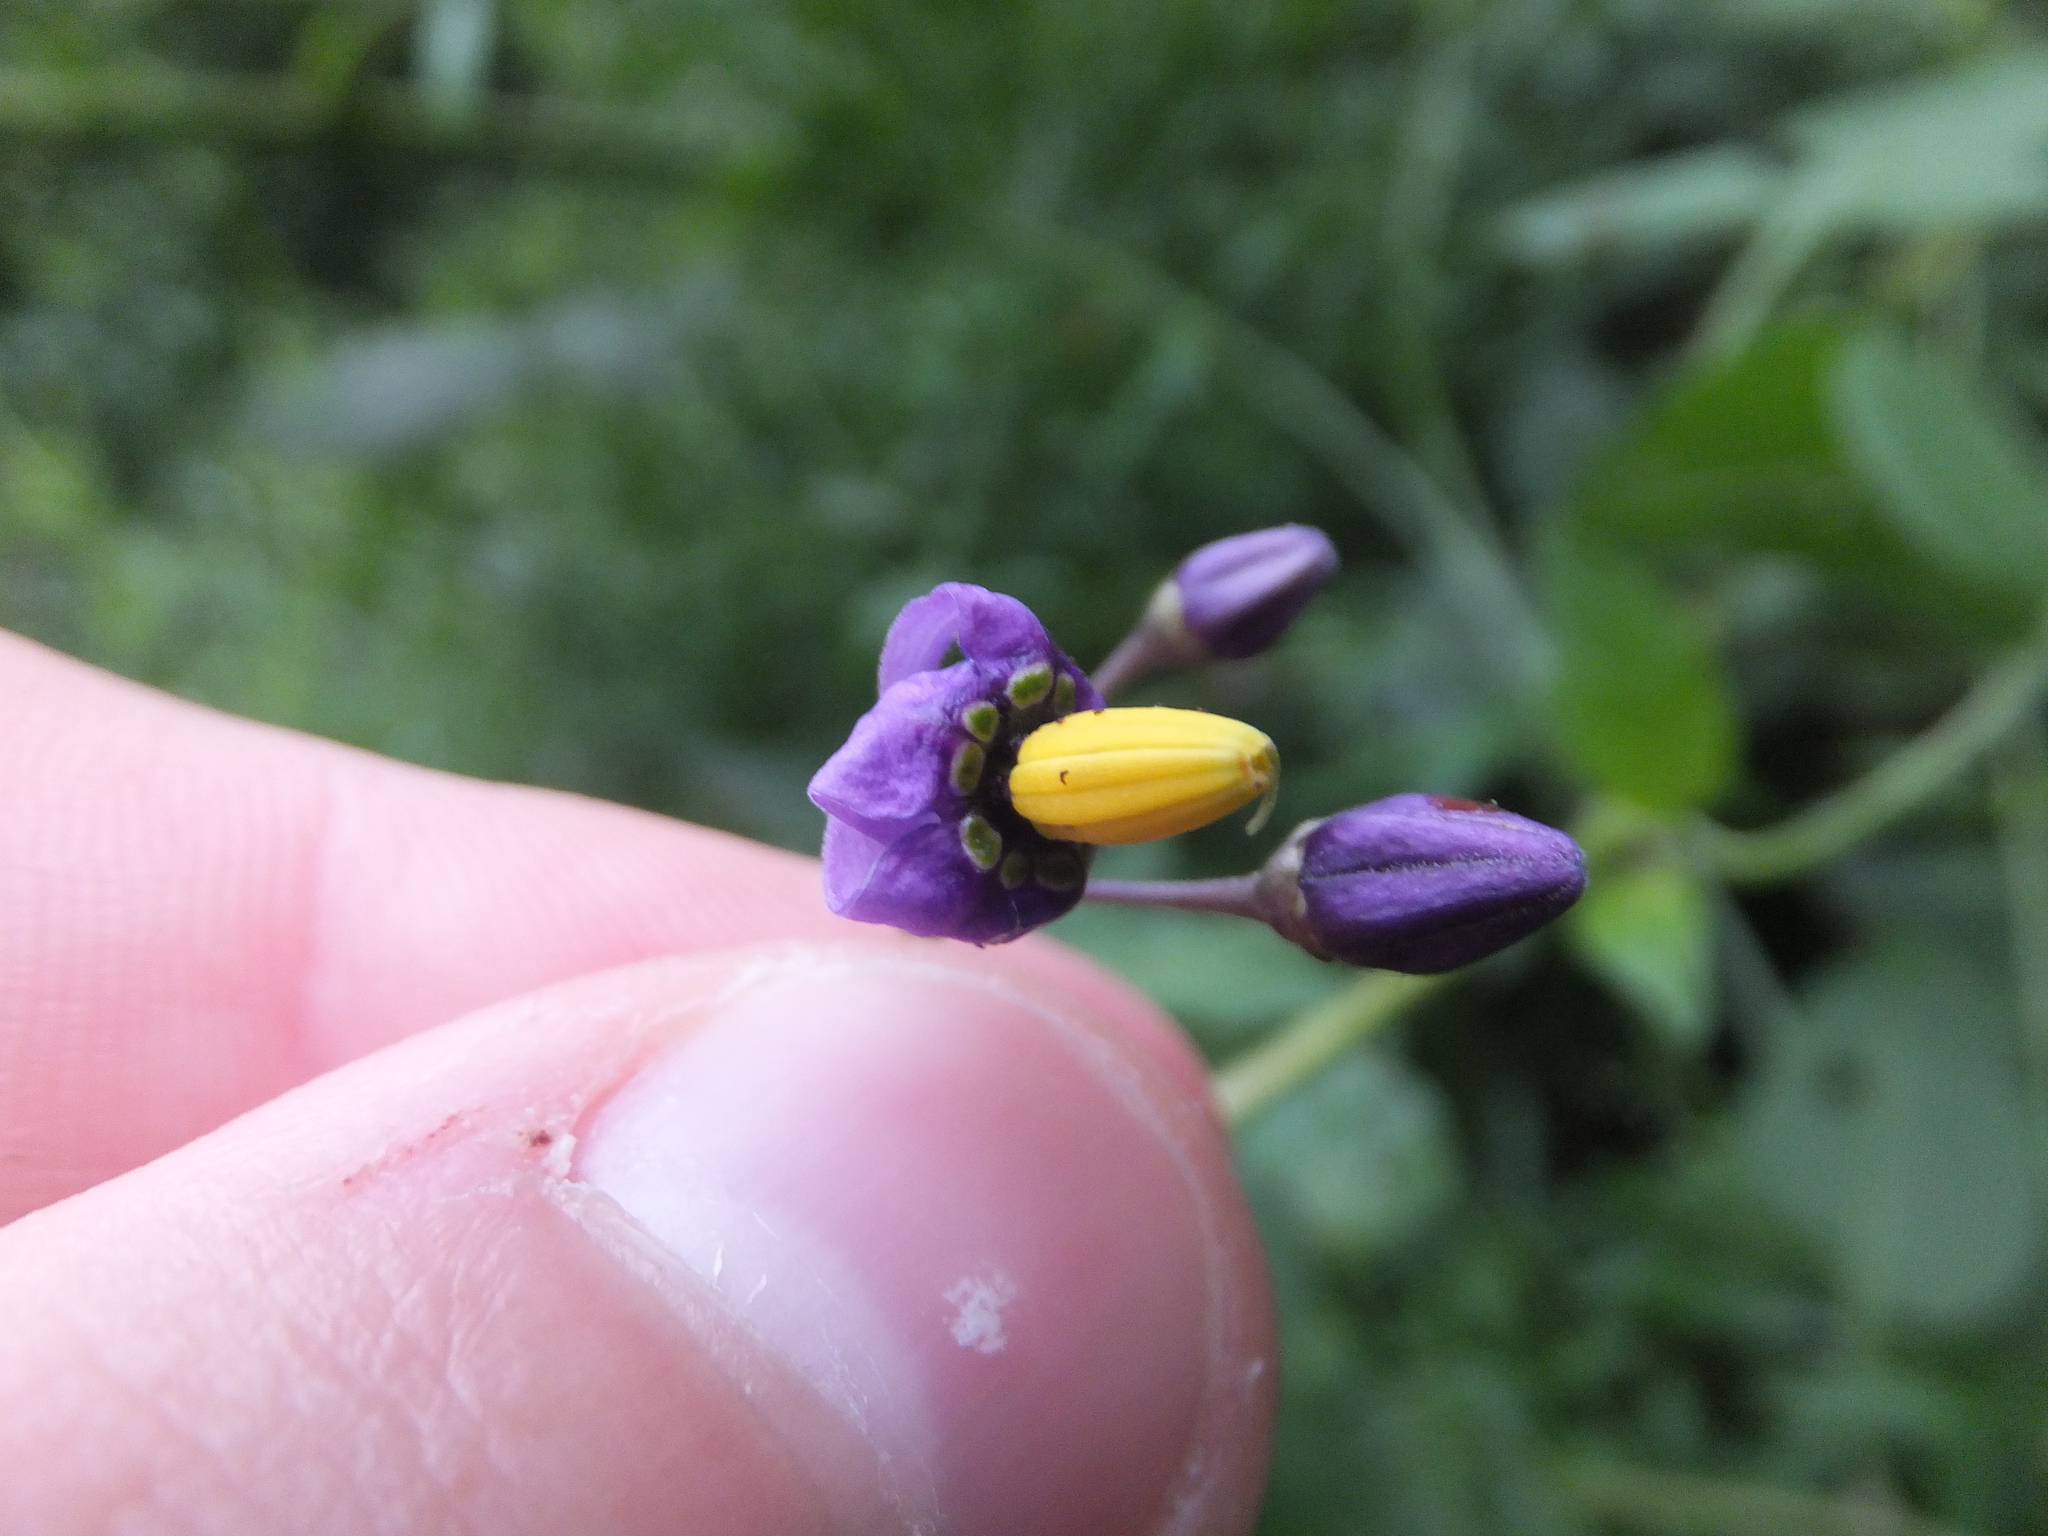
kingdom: Plantae
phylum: Tracheophyta
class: Magnoliopsida
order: Solanales
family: Solanaceae
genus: Solanum
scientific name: Solanum dulcamara
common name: Climbing nightshade
